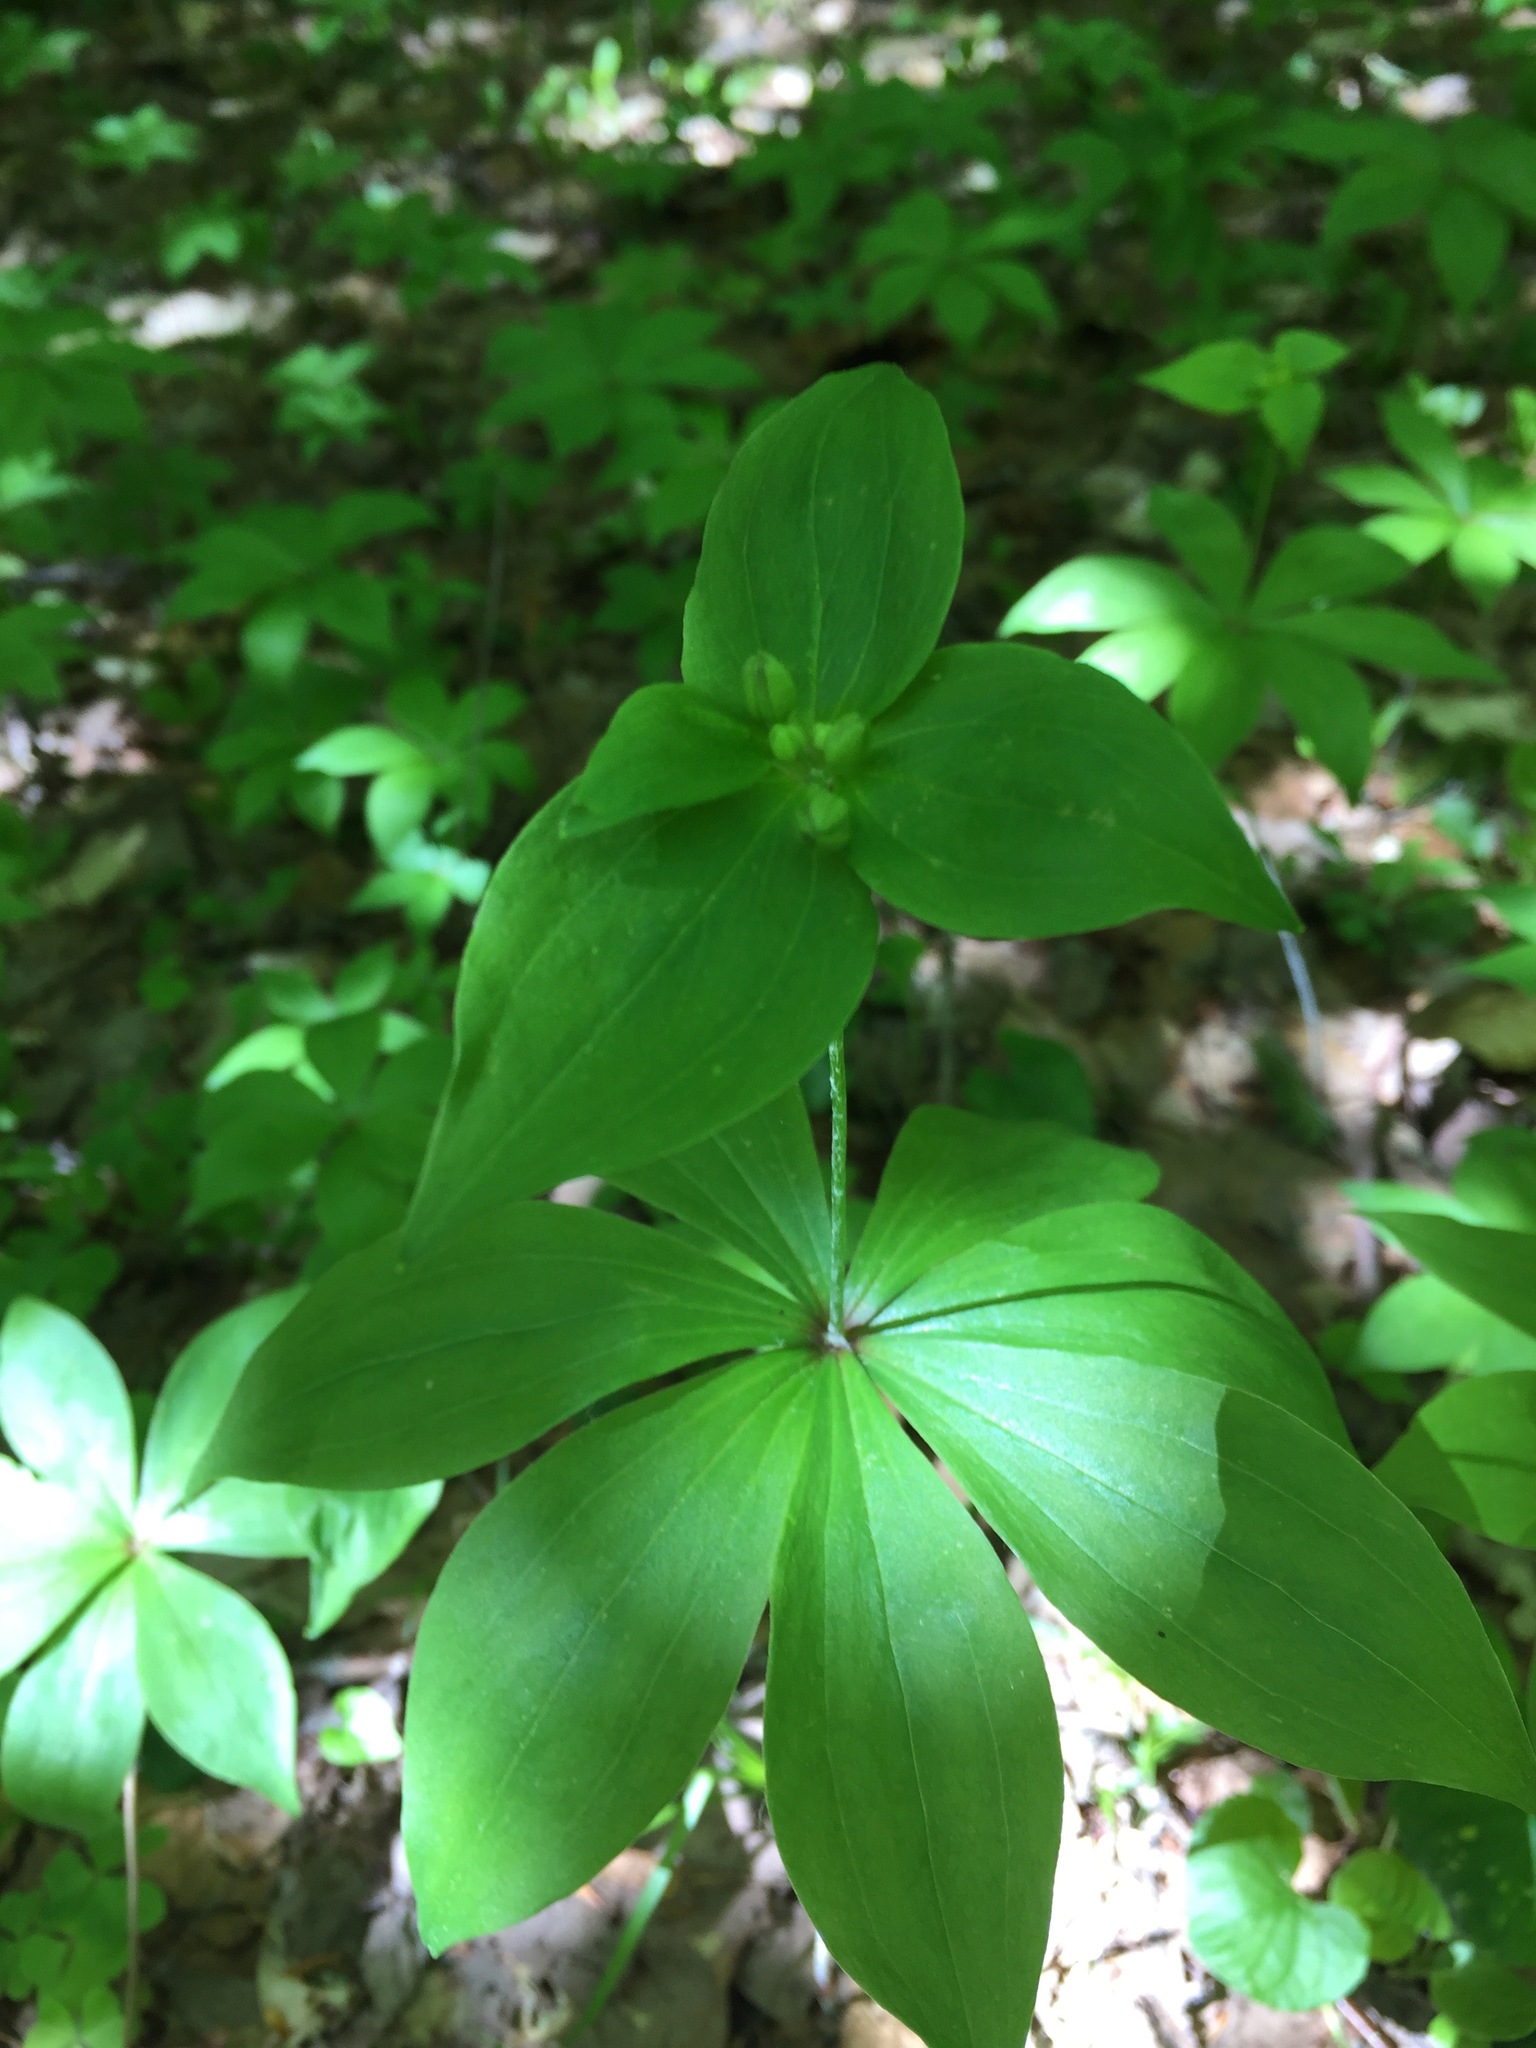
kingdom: Plantae
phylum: Tracheophyta
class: Liliopsida
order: Liliales
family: Liliaceae
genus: Medeola
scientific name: Medeola virginiana
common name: Indian cucumber-root
